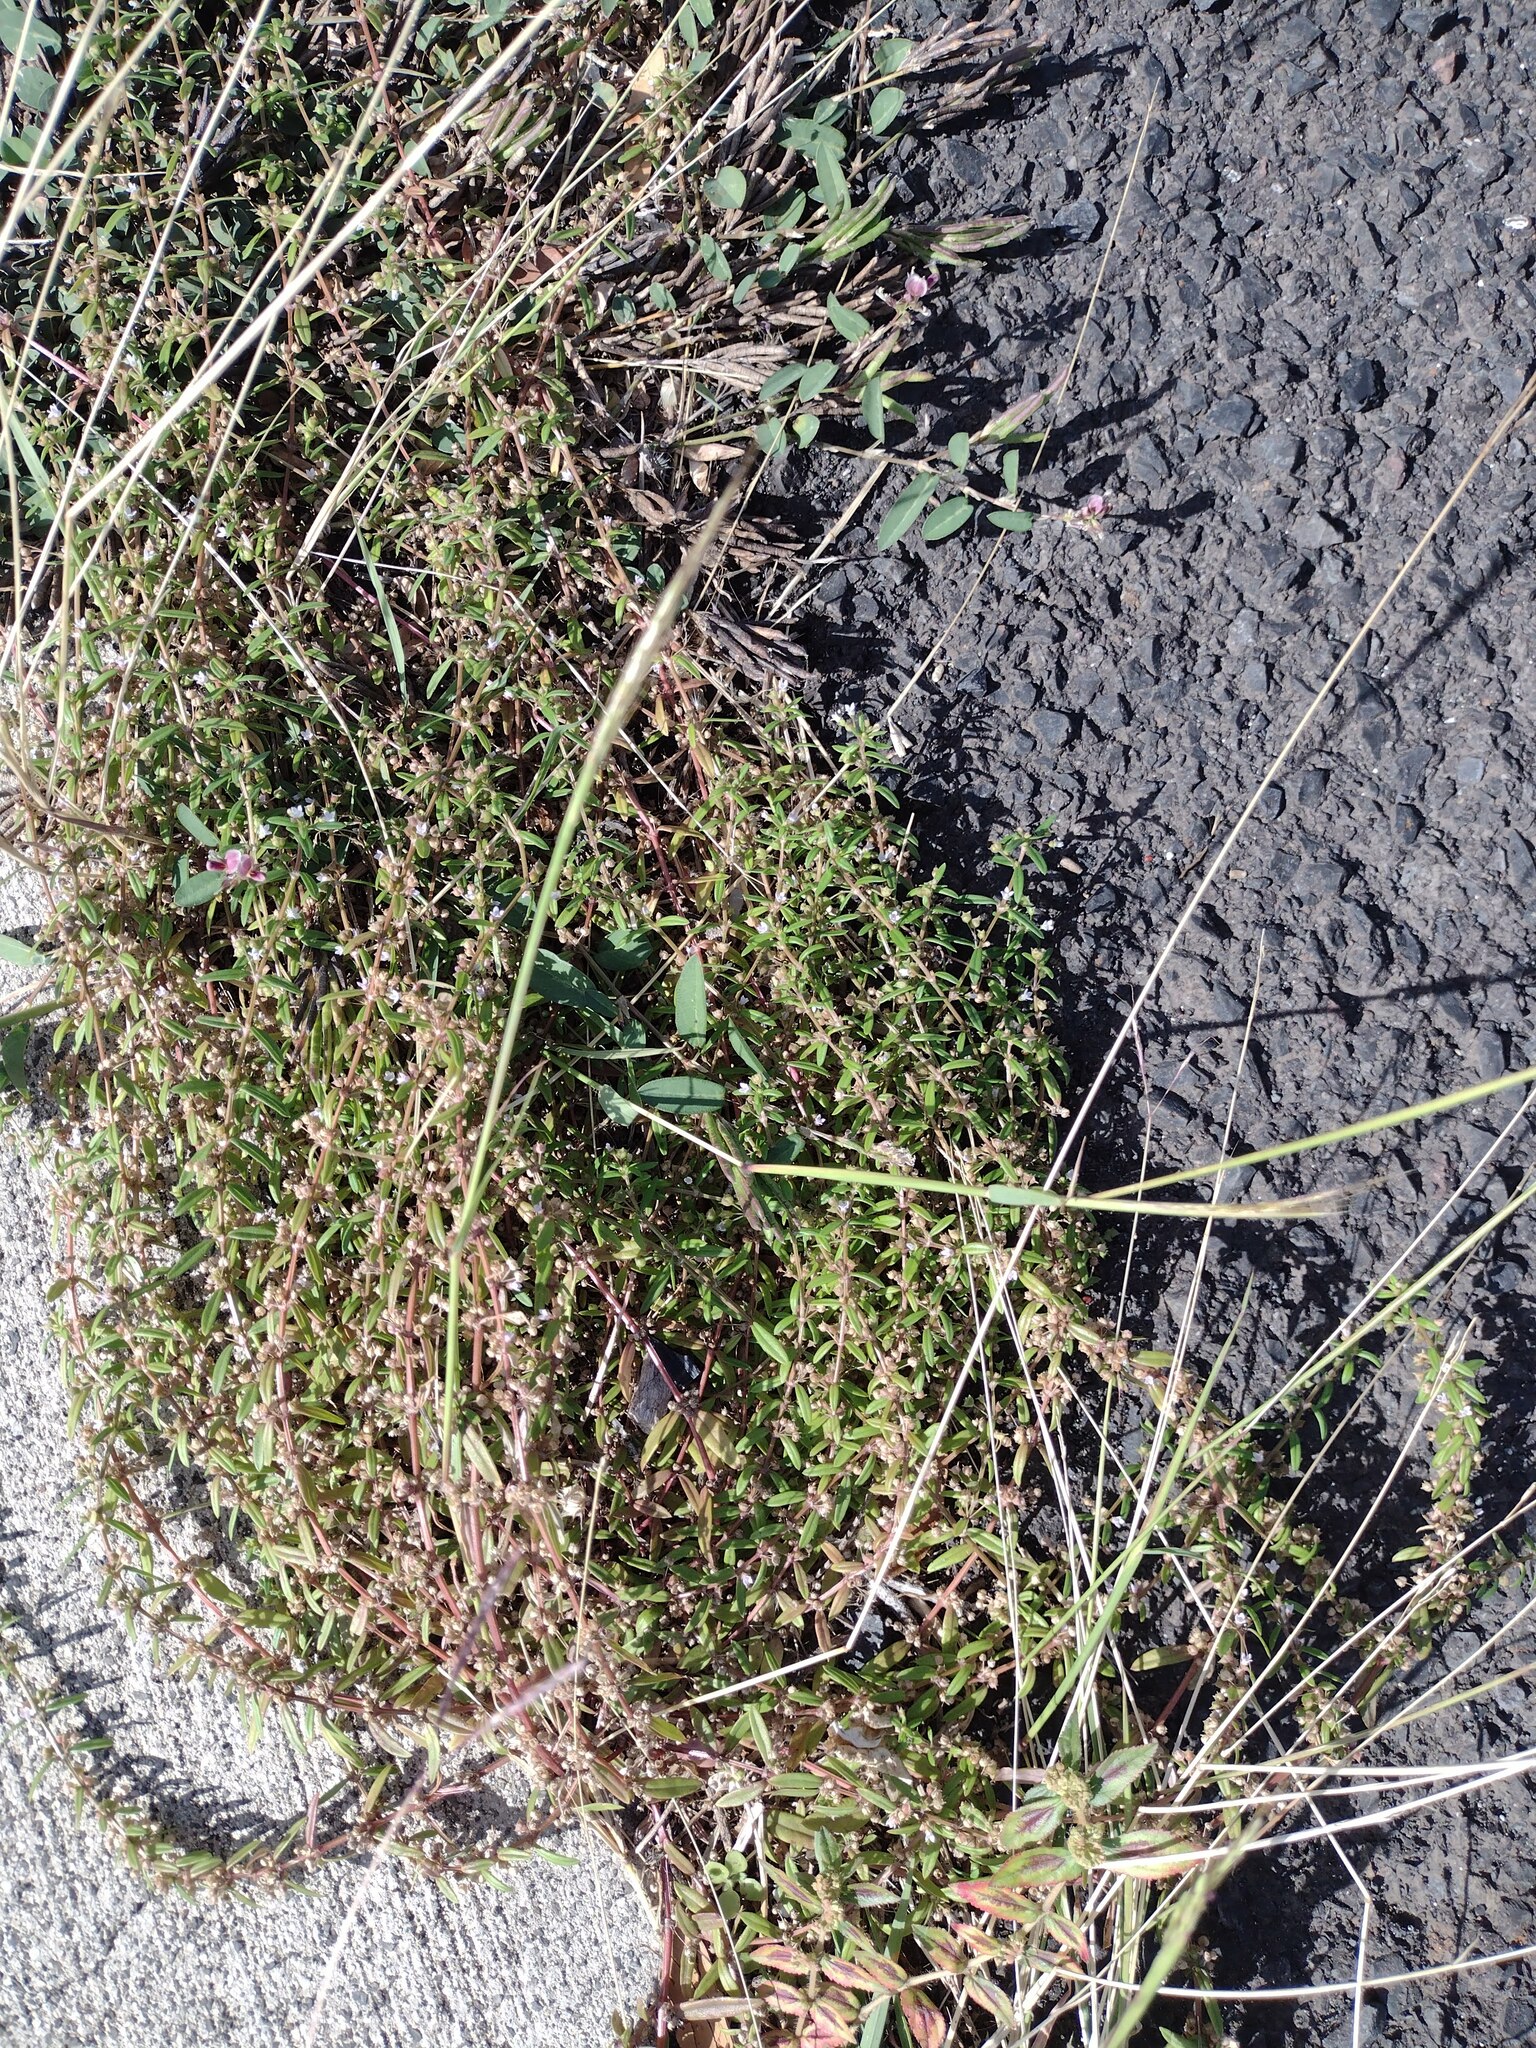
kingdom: Plantae
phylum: Tracheophyta
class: Magnoliopsida
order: Gentianales
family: Rubiaceae
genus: Oldenlandia
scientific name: Oldenlandia corymbosa
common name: Flat-top mille graines
